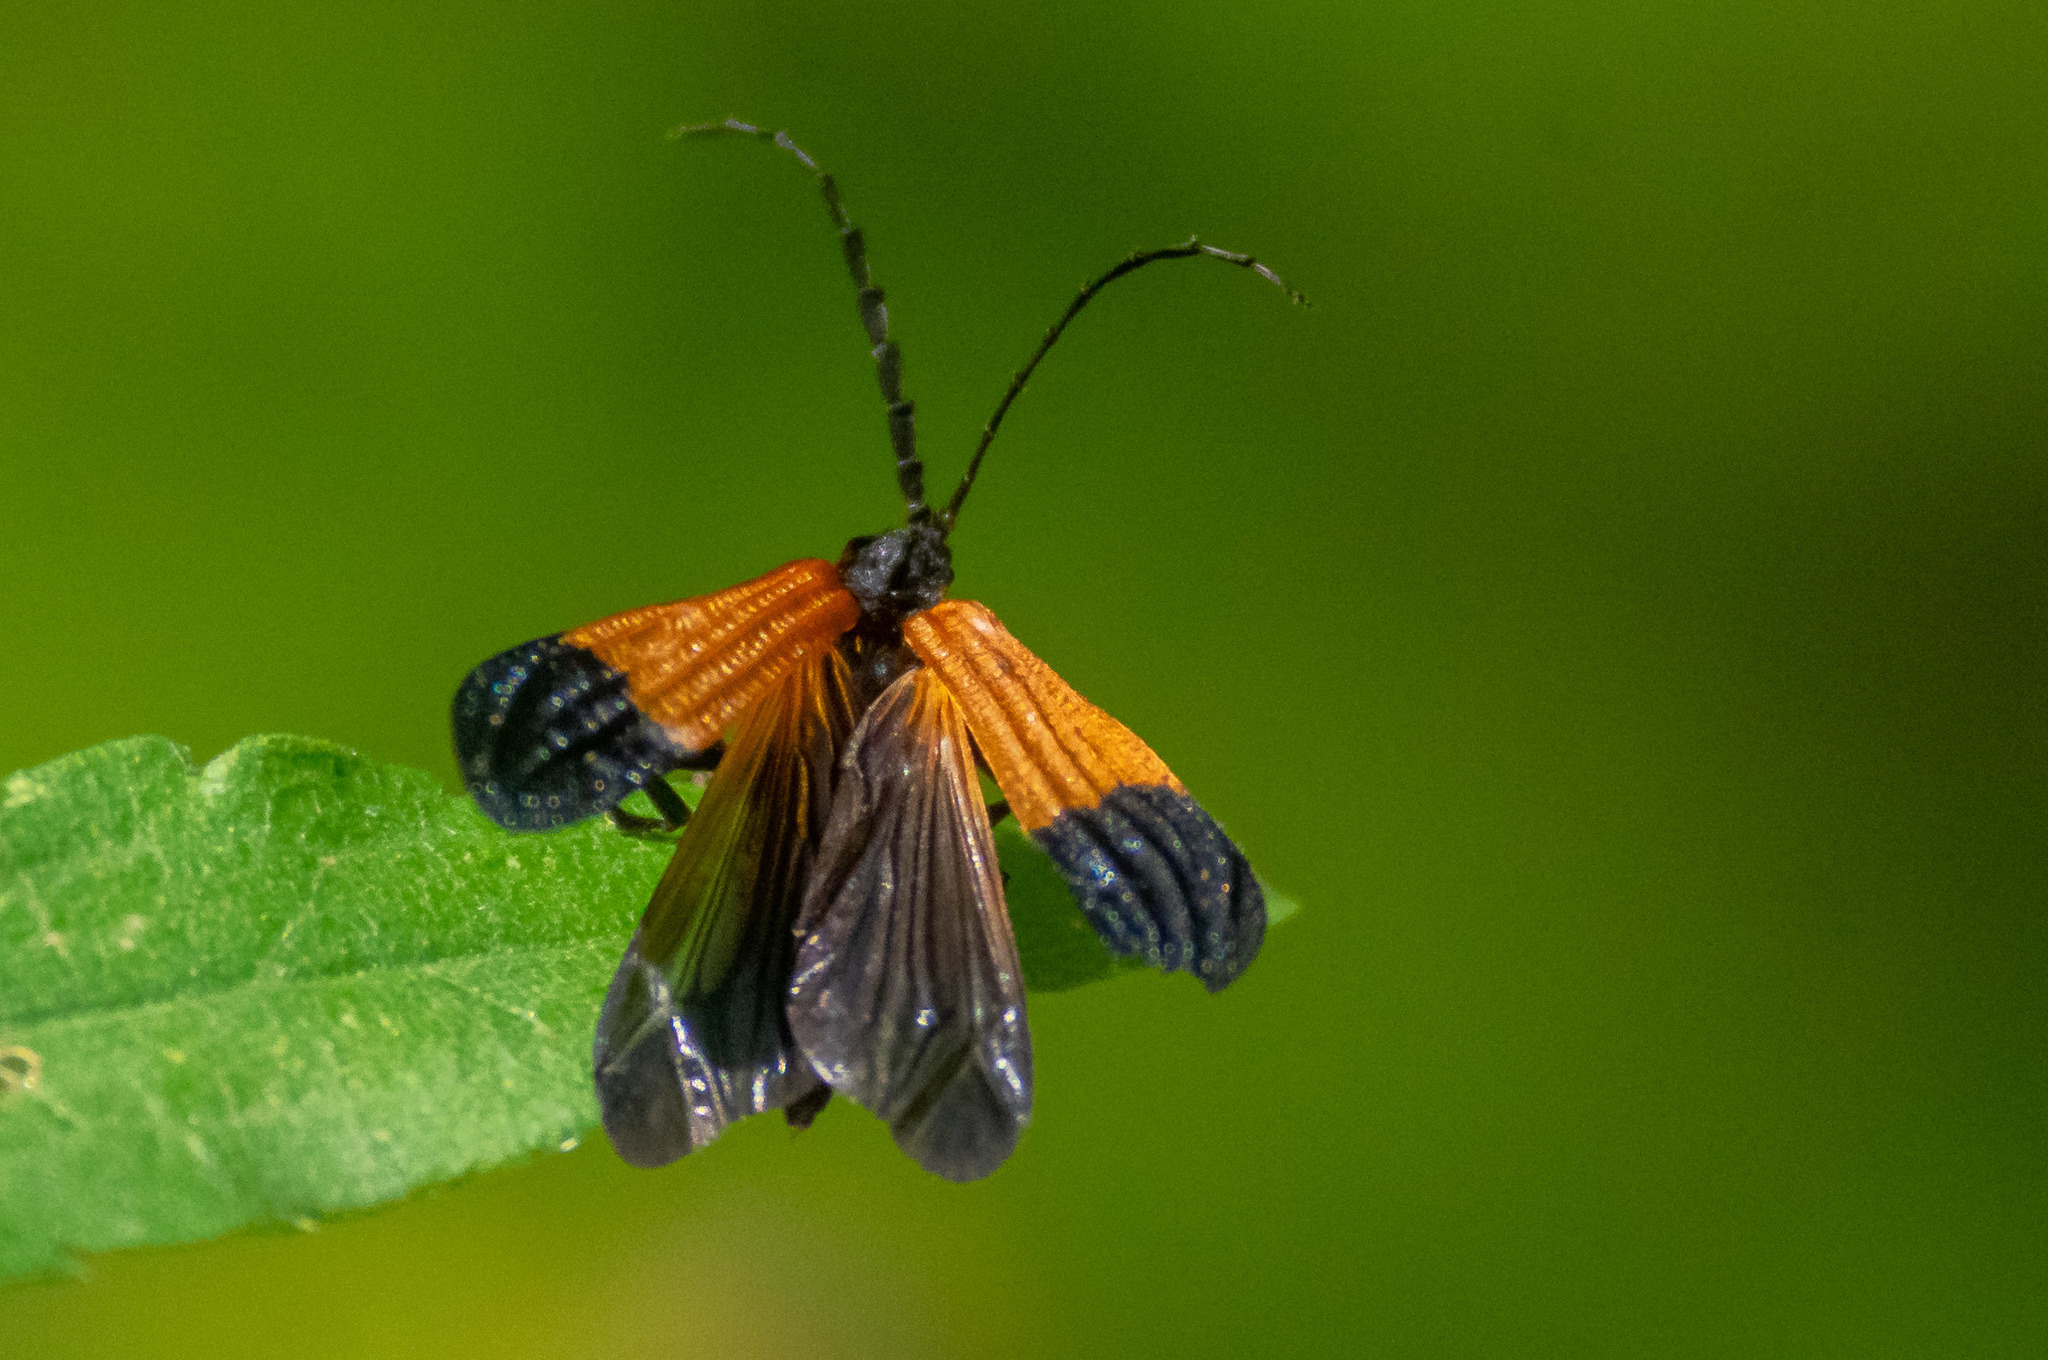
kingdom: Animalia
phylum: Arthropoda
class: Insecta
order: Coleoptera
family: Lycidae
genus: Calopteron
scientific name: Calopteron terminale
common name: End band net-winged beetle
